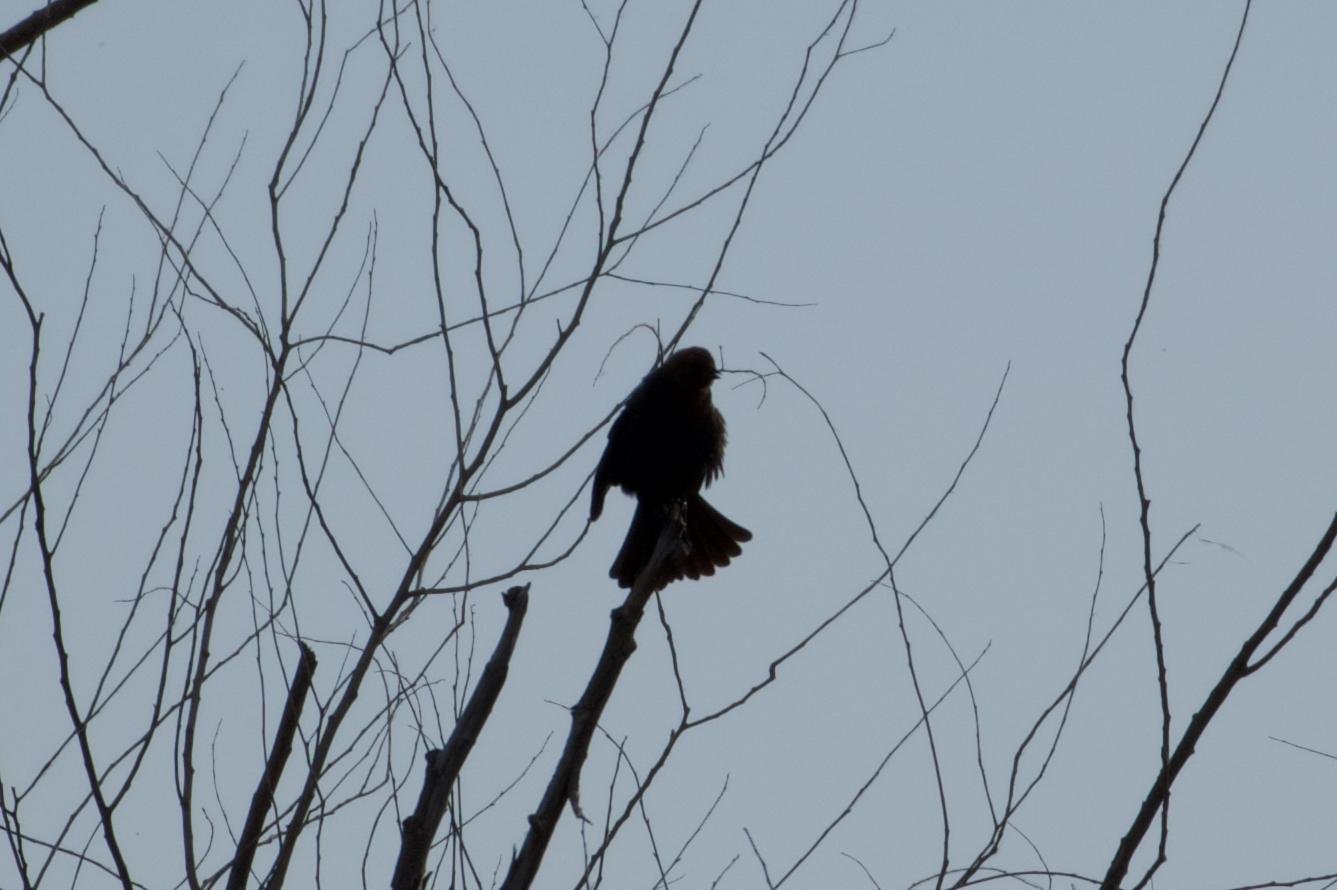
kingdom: Animalia
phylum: Chordata
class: Aves
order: Passeriformes
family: Icteridae
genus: Agelaius
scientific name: Agelaius phoeniceus
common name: Red-winged blackbird
